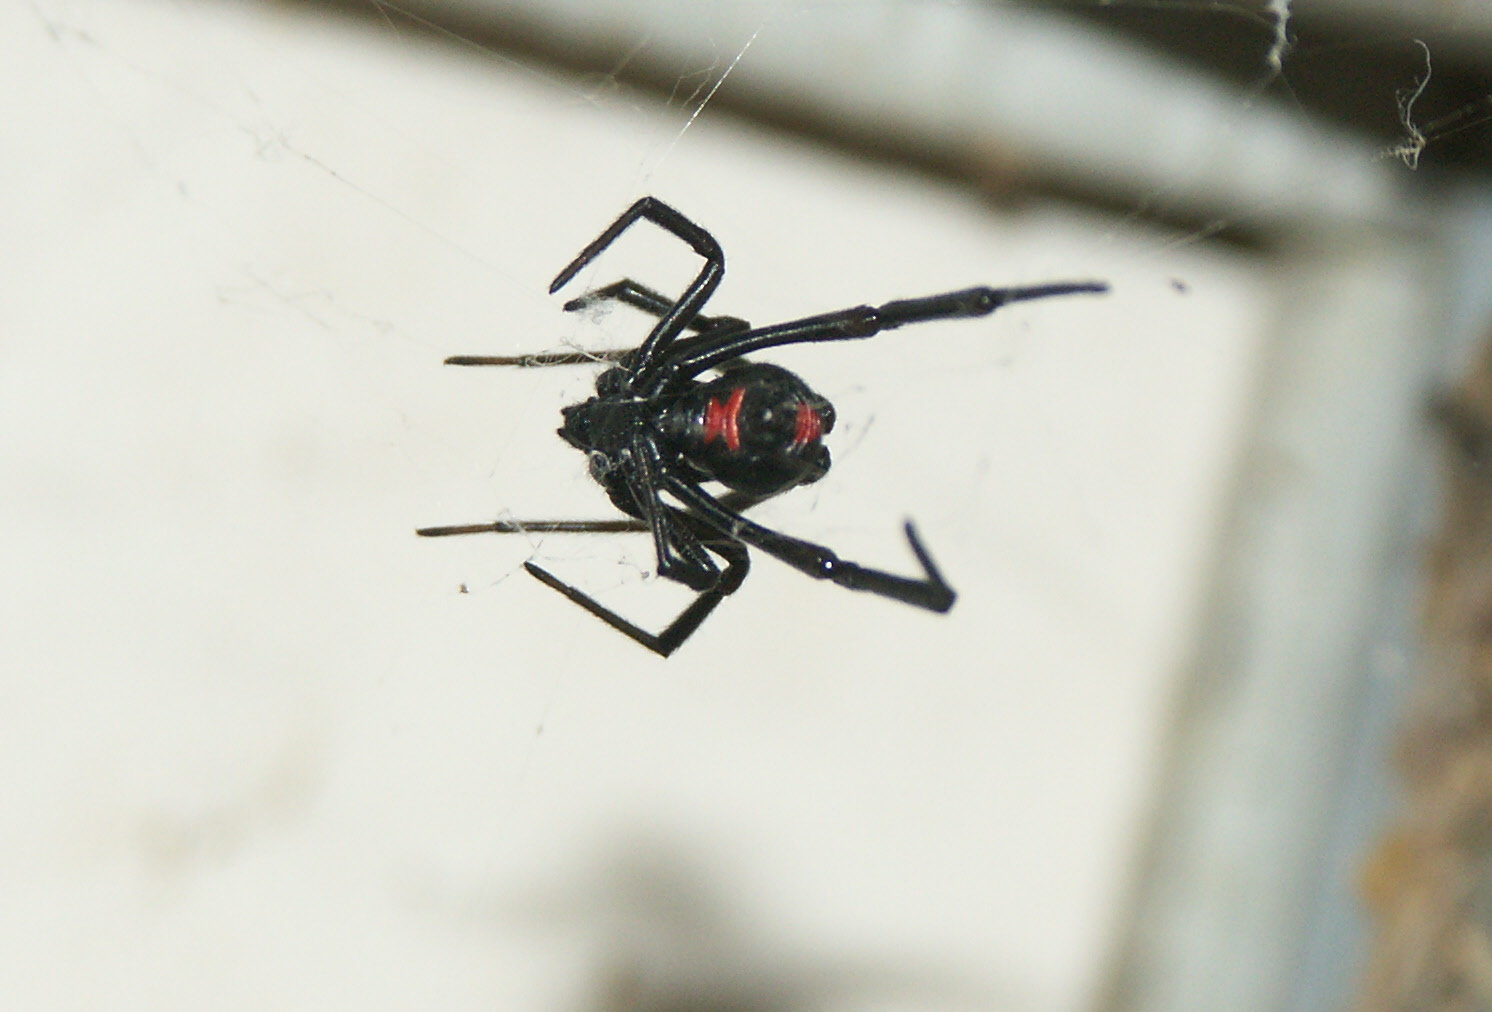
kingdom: Animalia
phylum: Arthropoda
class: Arachnida
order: Araneae
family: Theridiidae
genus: Latrodectus
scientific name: Latrodectus mactans
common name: Cobweb spiders
